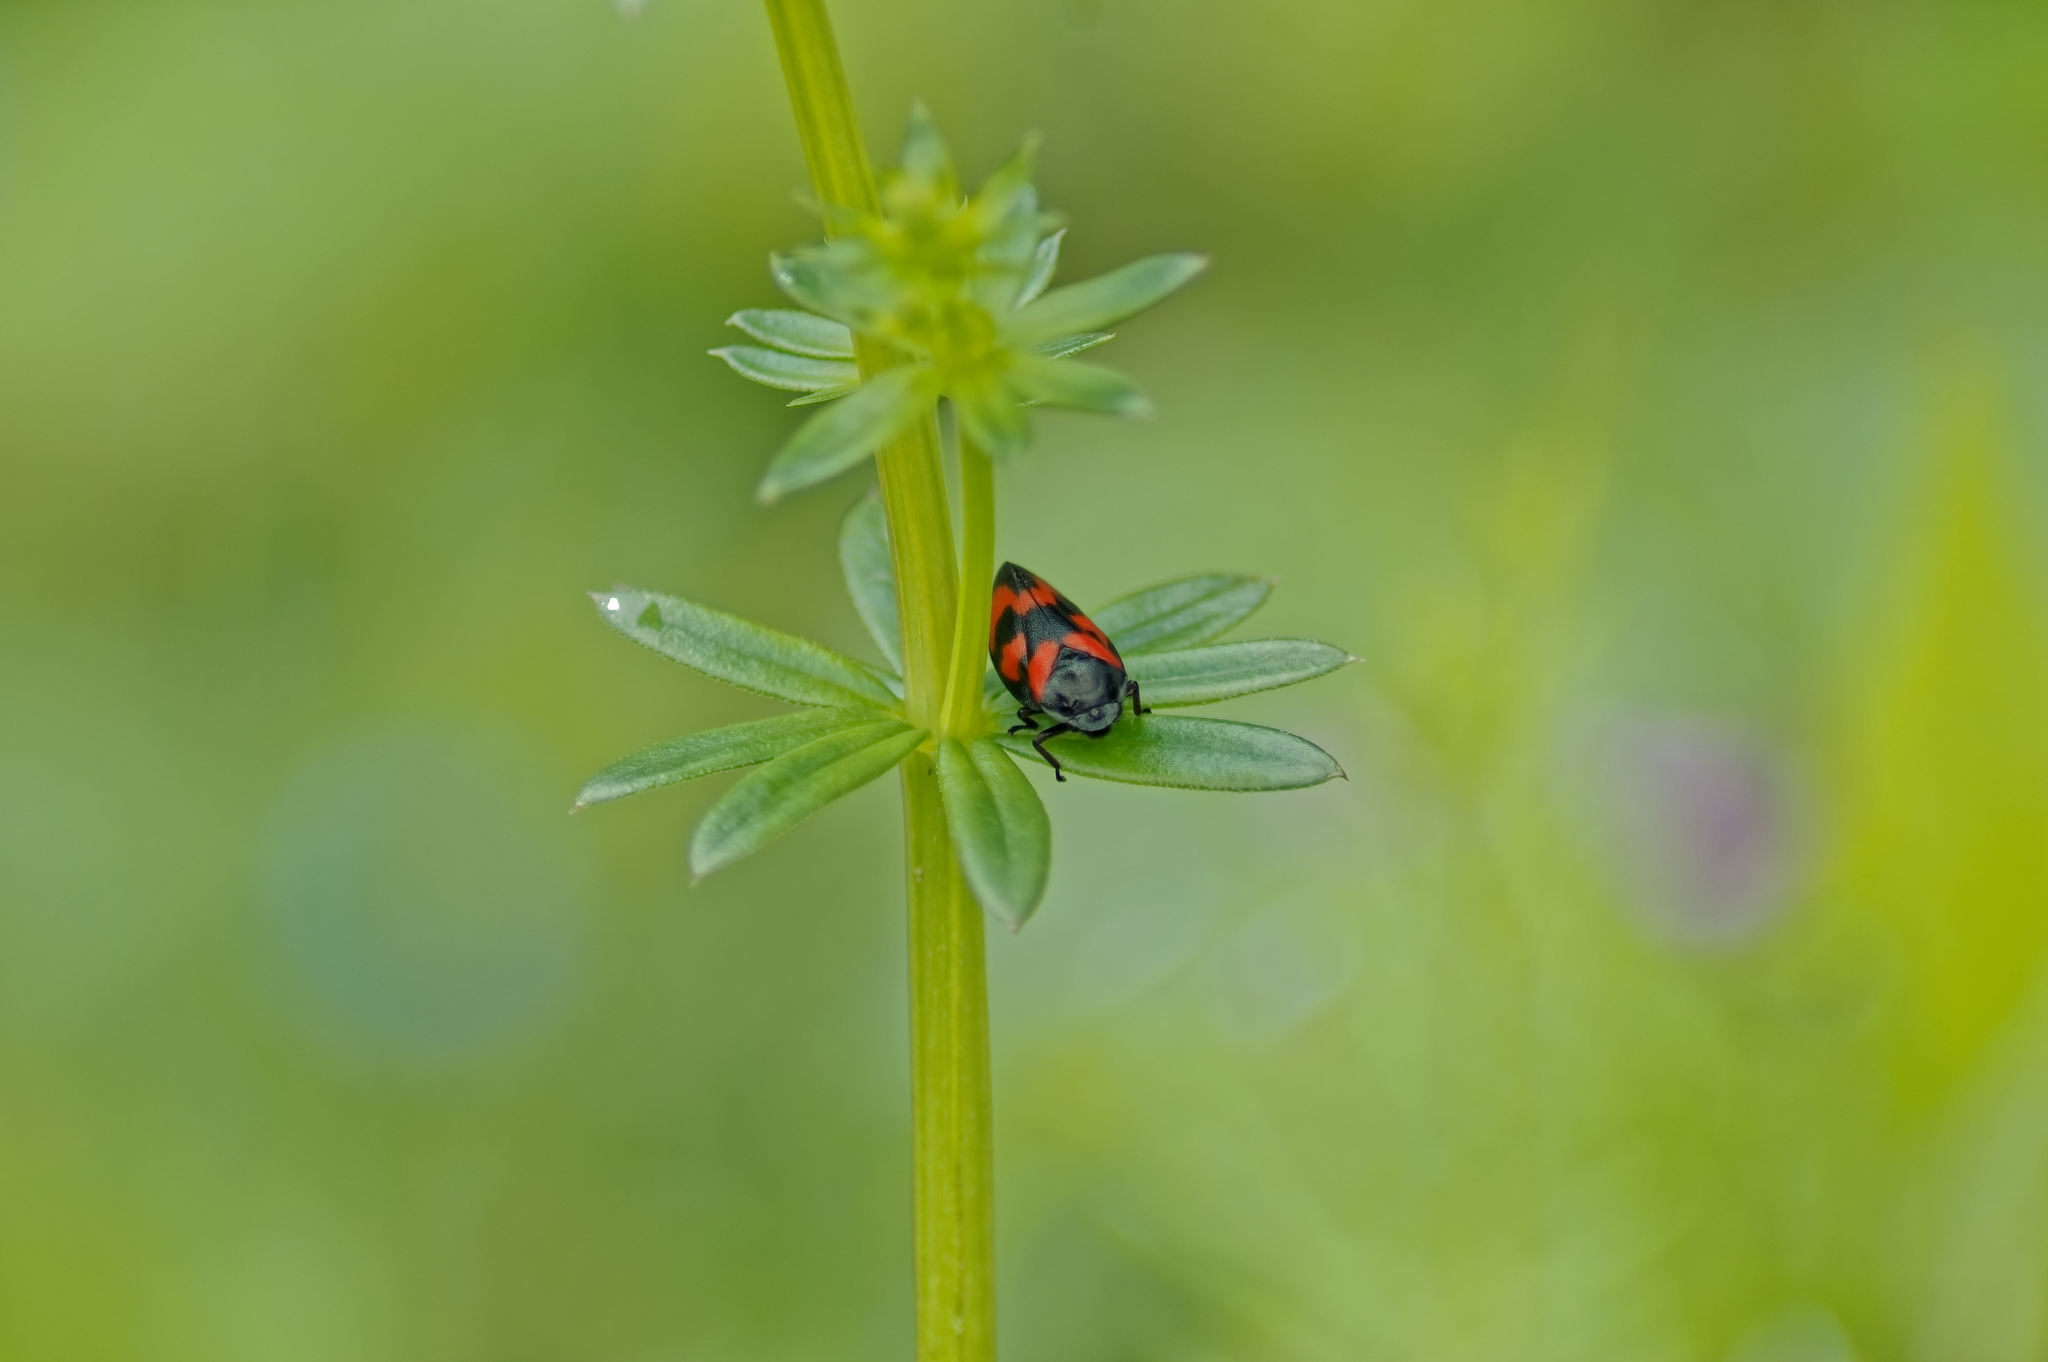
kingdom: Animalia
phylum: Arthropoda
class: Insecta
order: Hemiptera
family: Cercopidae
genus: Cercopis
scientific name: Cercopis vulnerata
